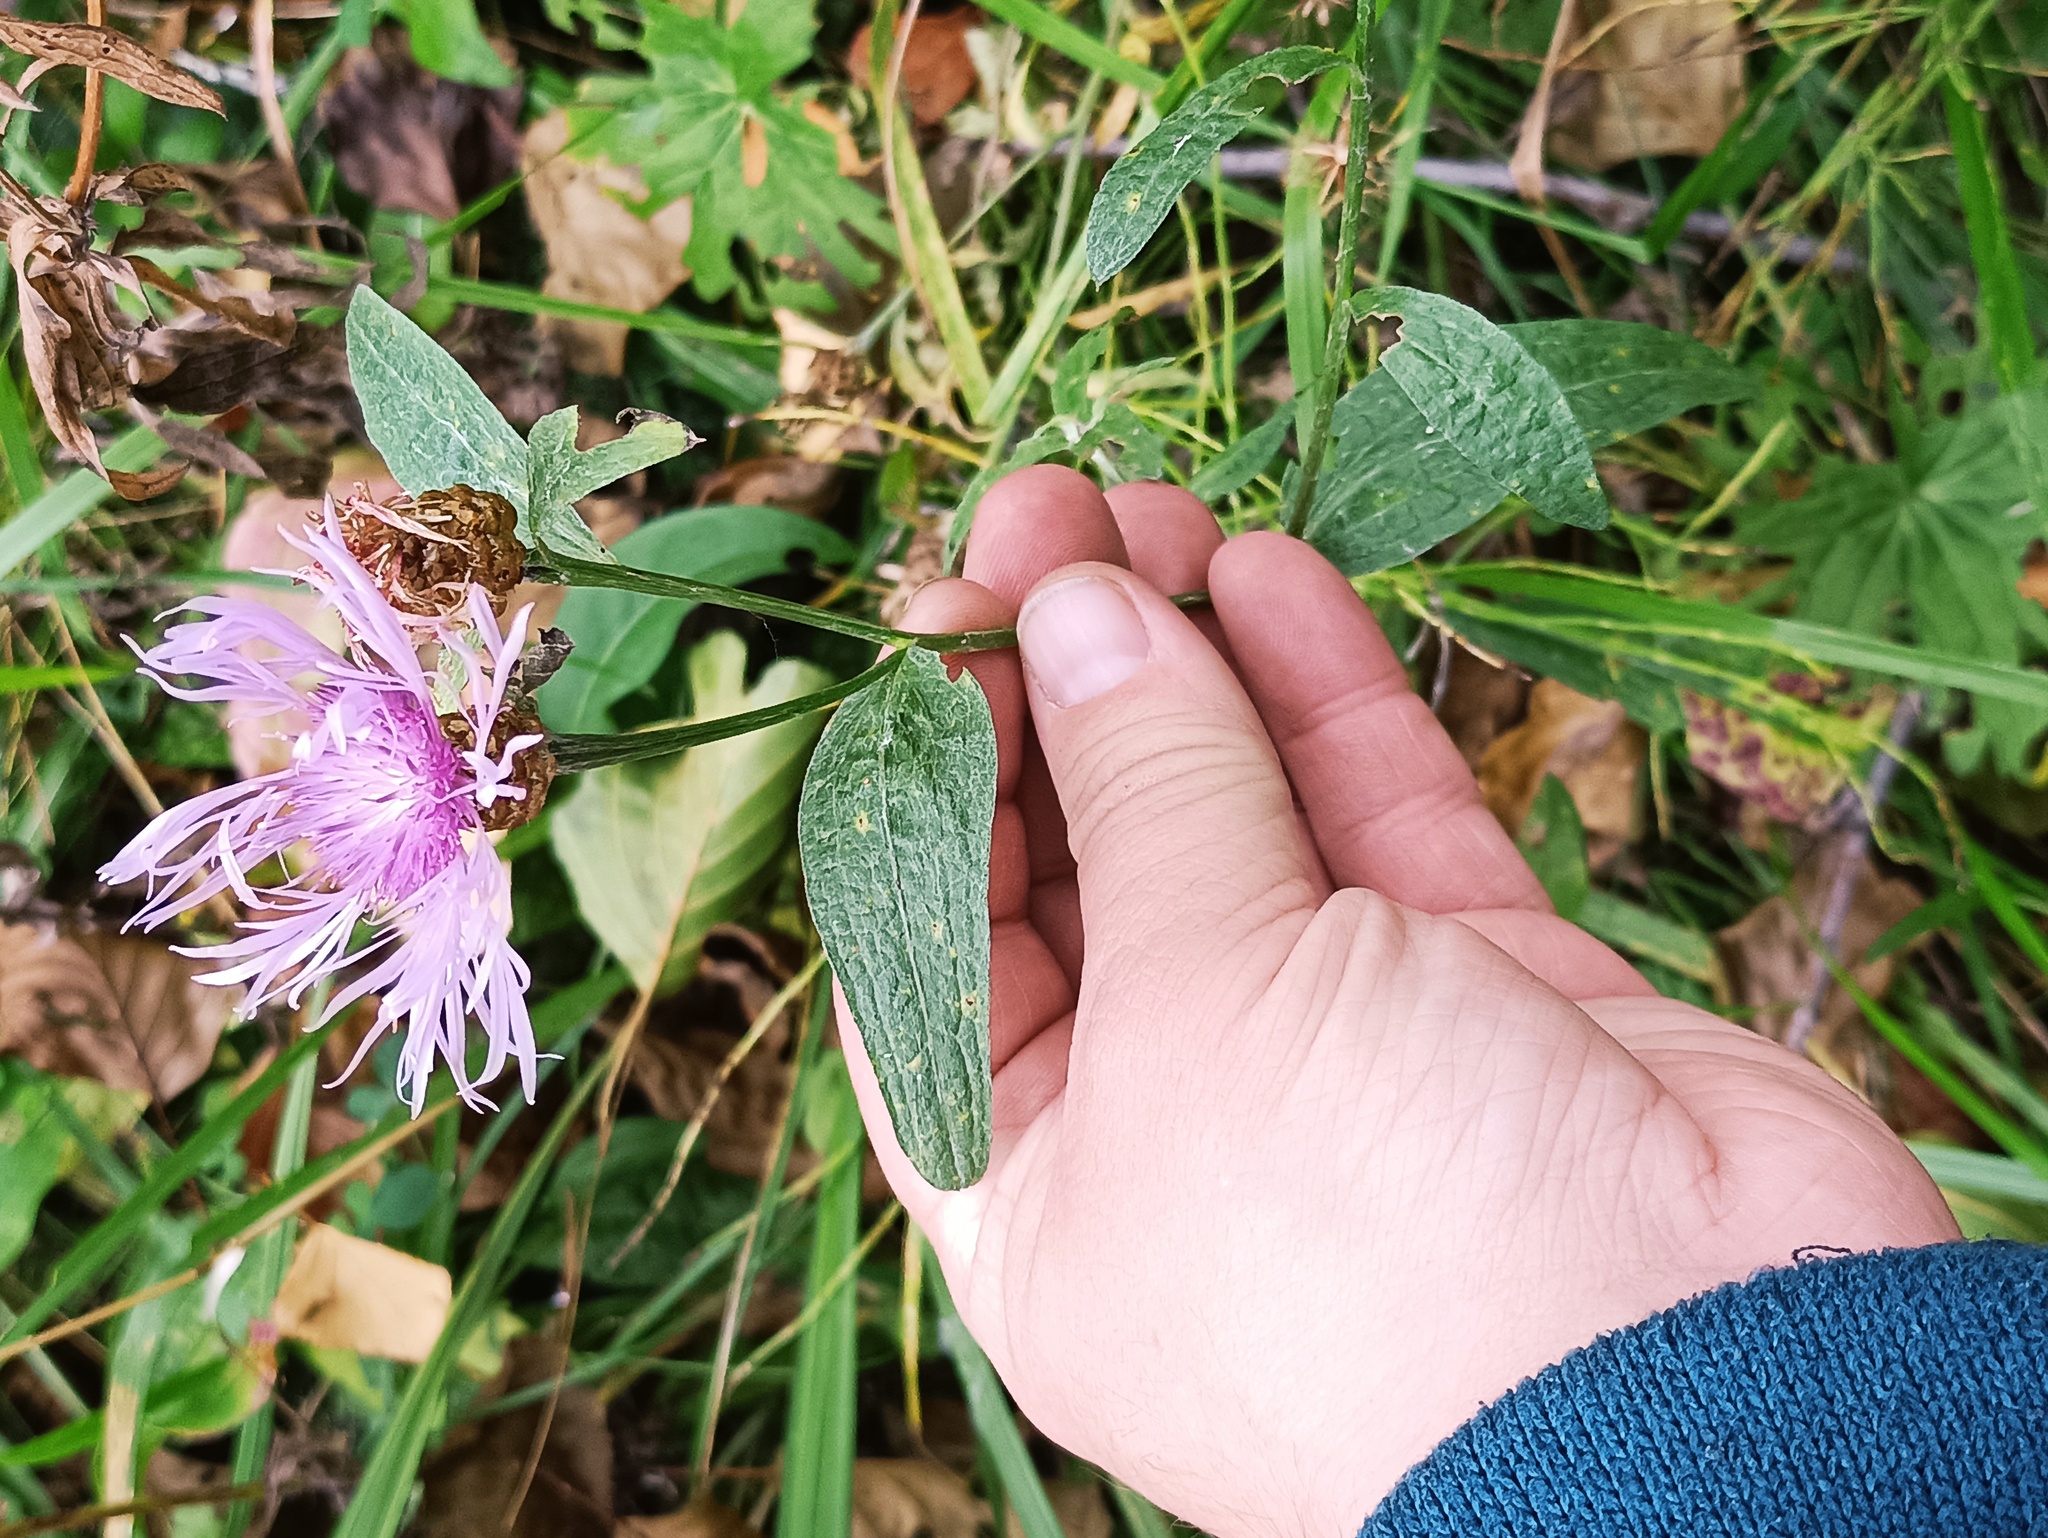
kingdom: Plantae
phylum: Tracheophyta
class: Magnoliopsida
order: Asterales
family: Asteraceae
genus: Centaurea
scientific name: Centaurea jacea
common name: Brown knapweed
